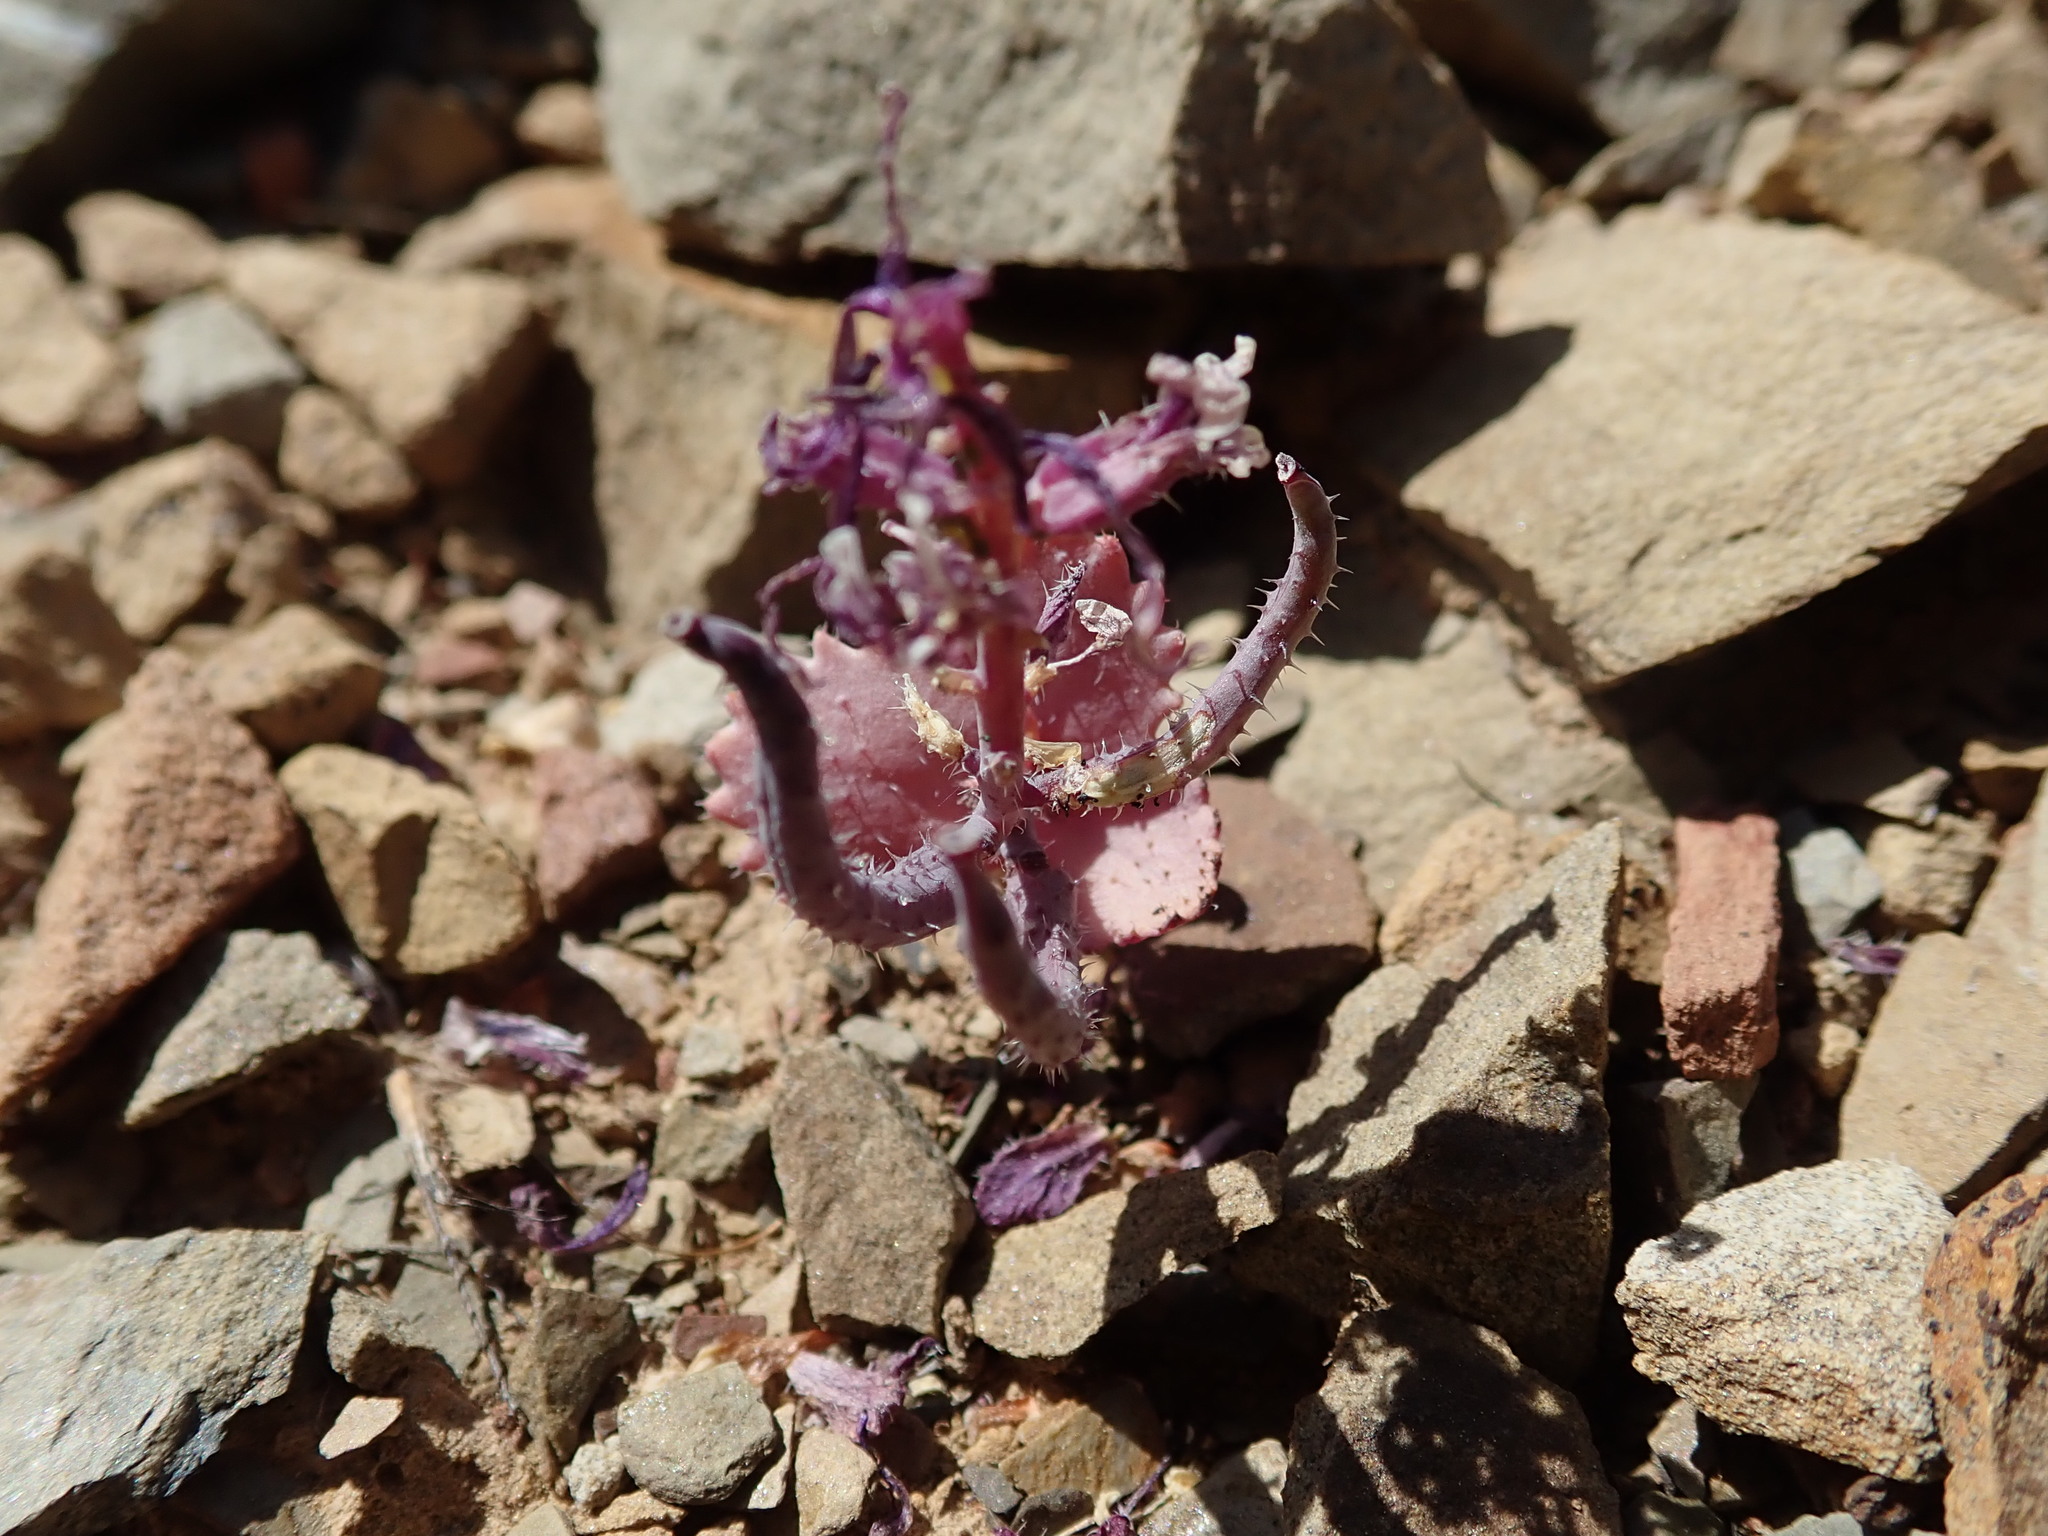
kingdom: Plantae
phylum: Tracheophyta
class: Magnoliopsida
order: Brassicales
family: Brassicaceae
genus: Streptanthus
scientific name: Streptanthus callistus
